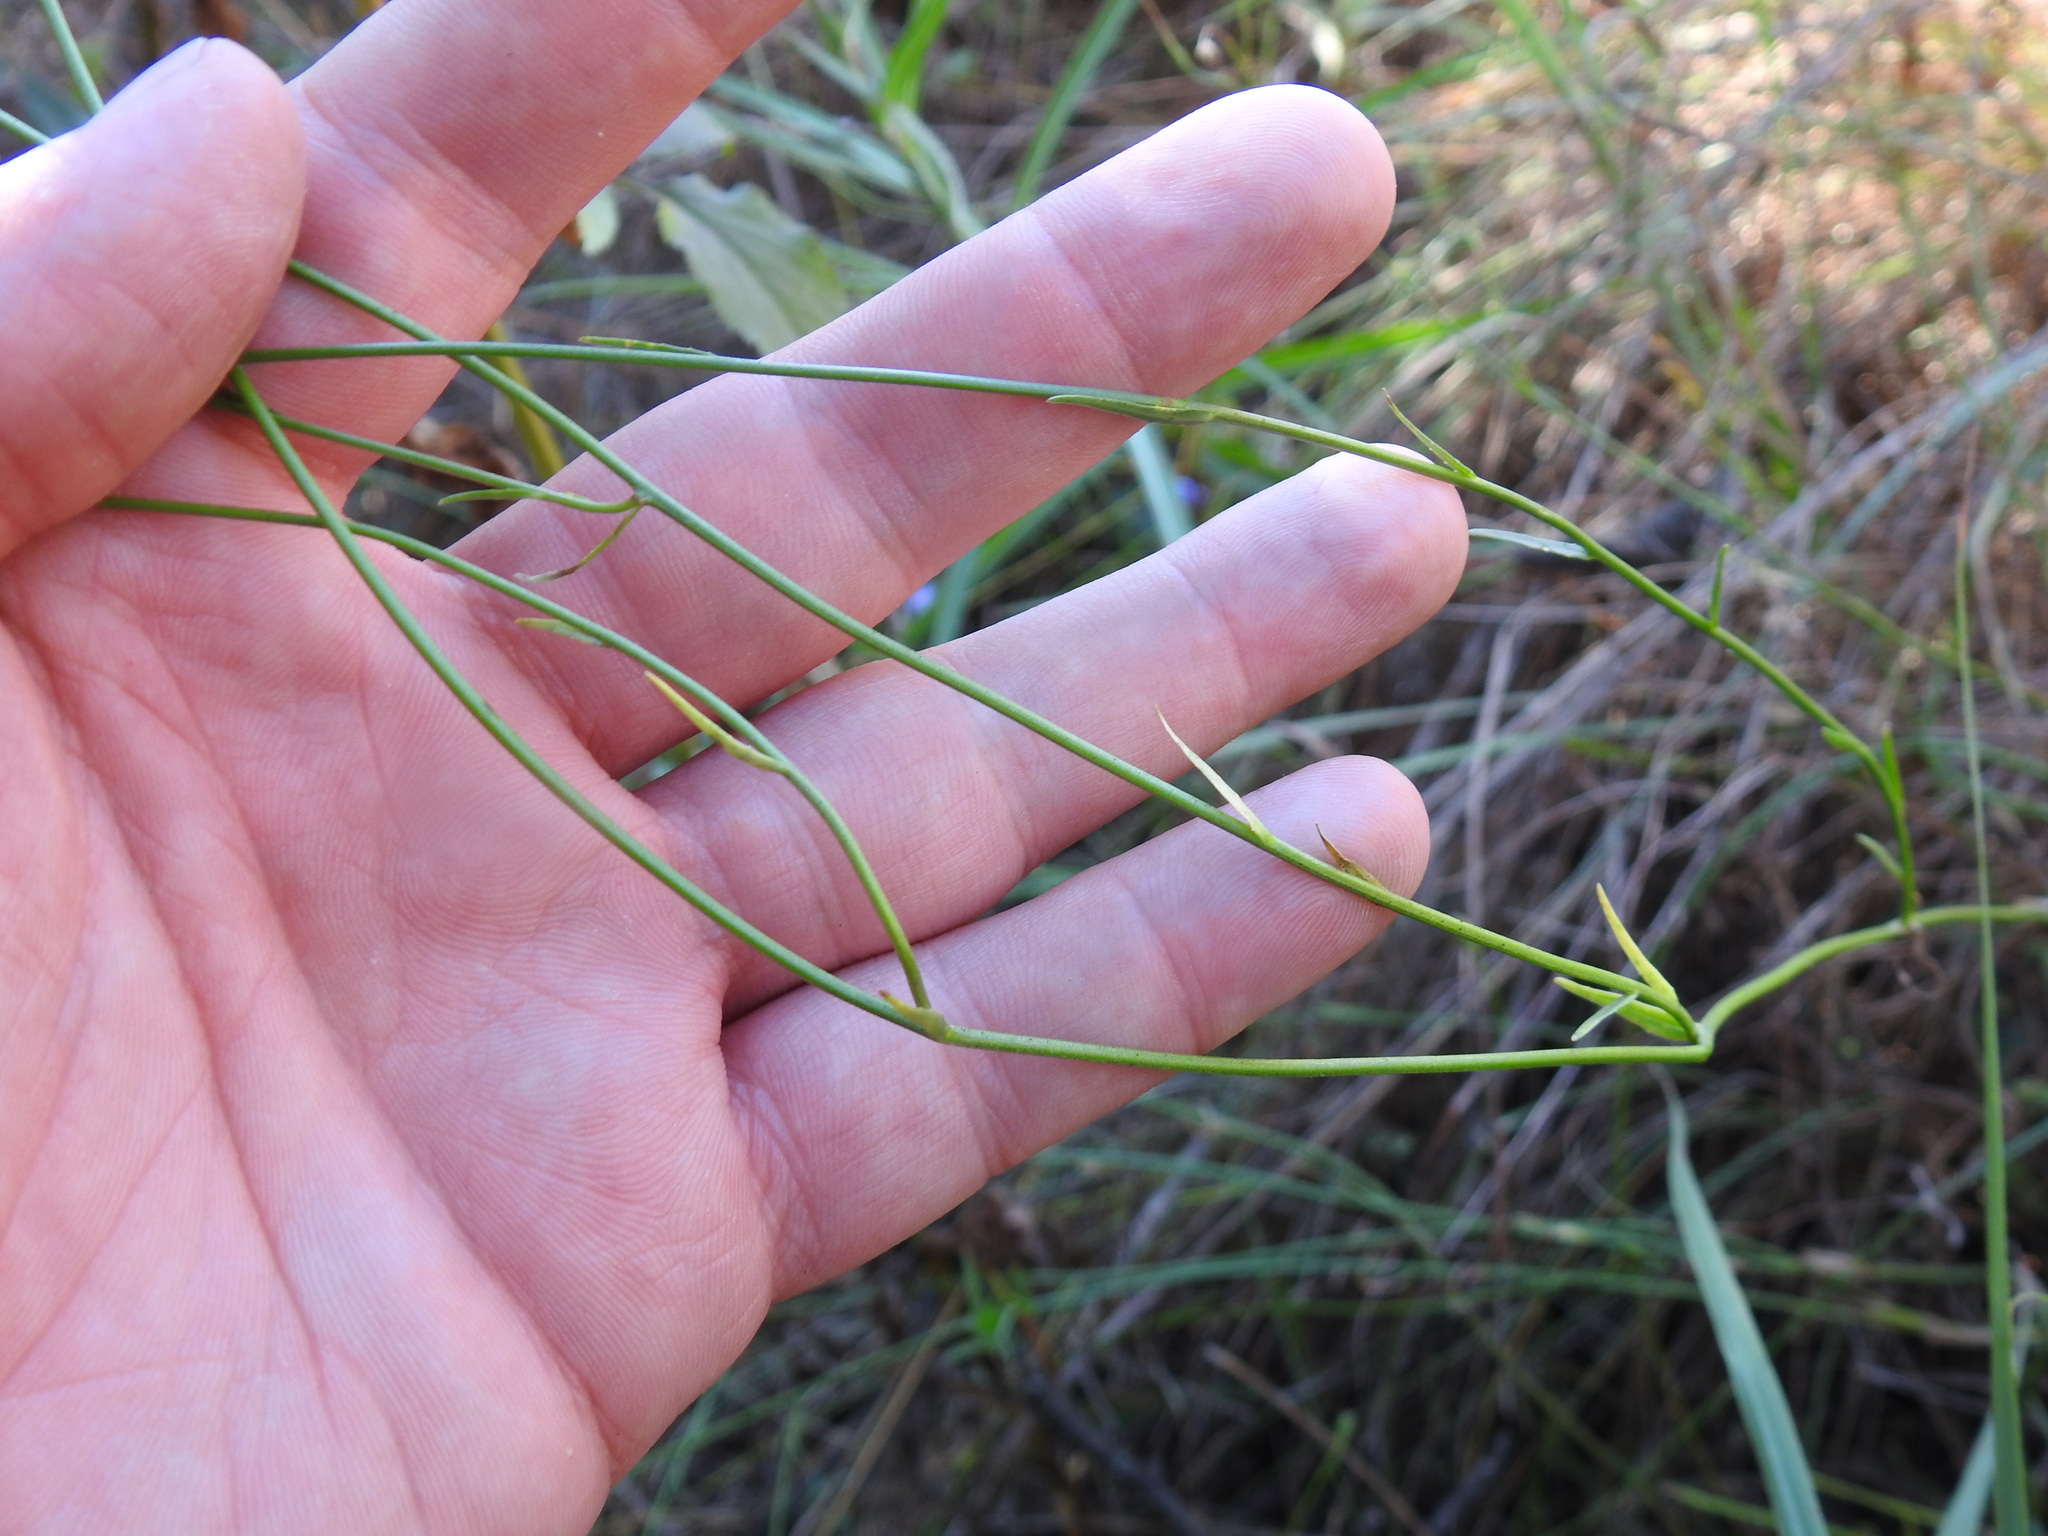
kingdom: Plantae
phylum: Tracheophyta
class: Magnoliopsida
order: Asterales
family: Campanulaceae
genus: Wahlenbergia
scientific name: Wahlenbergia undulata
